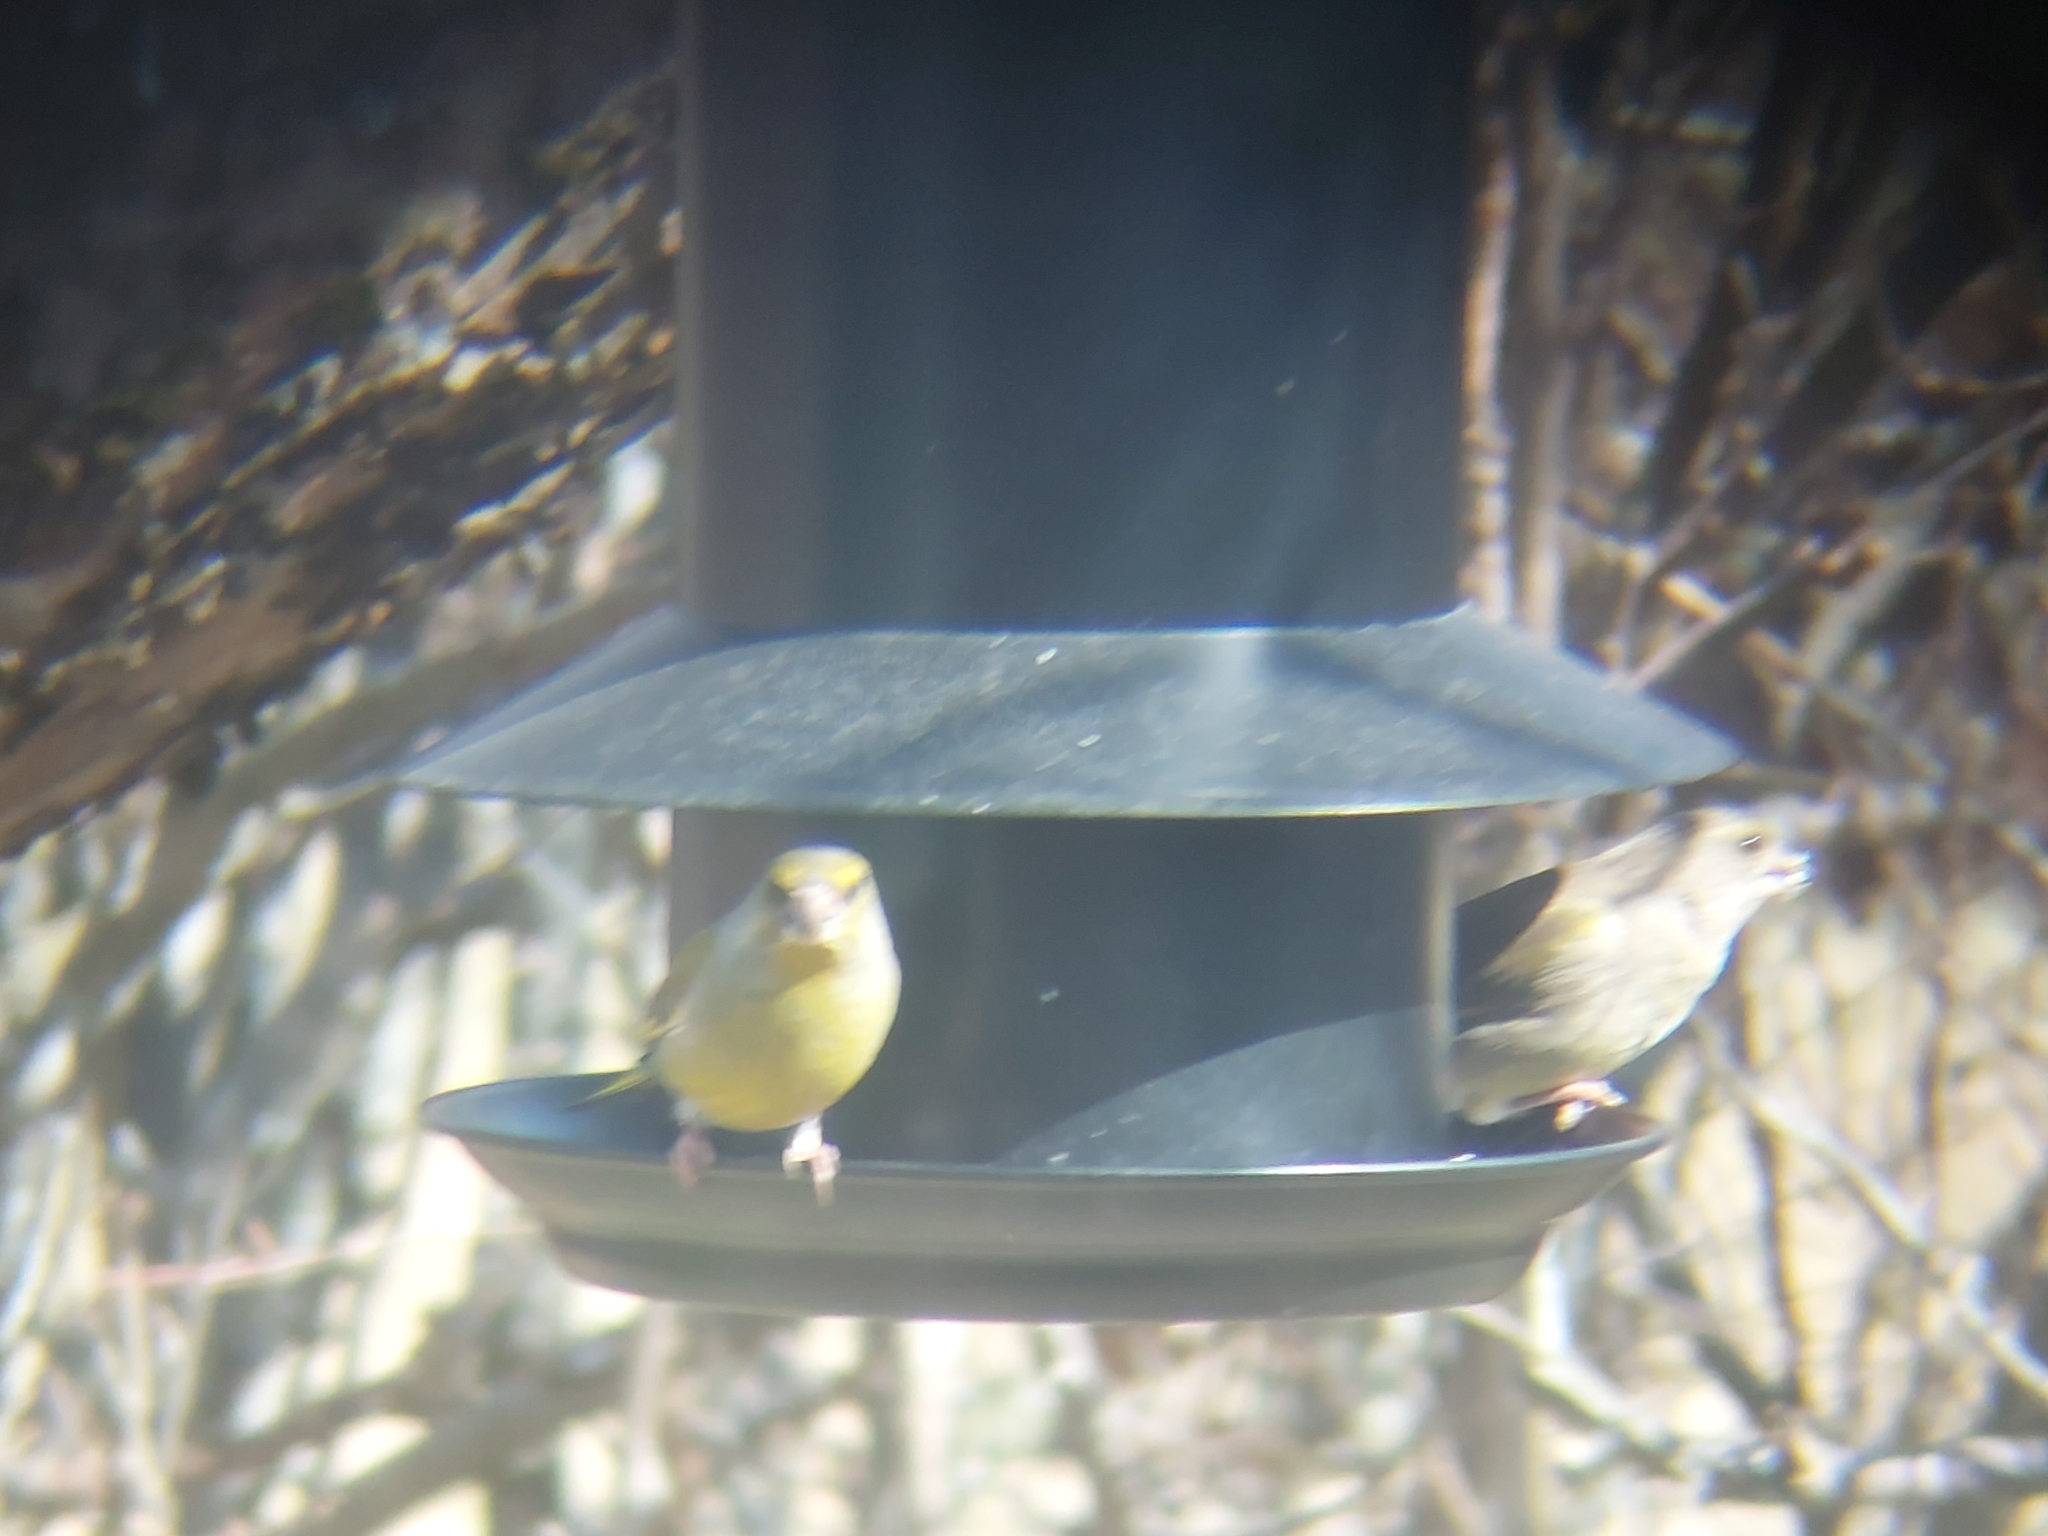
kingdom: Plantae
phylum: Tracheophyta
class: Liliopsida
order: Poales
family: Poaceae
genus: Chloris
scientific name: Chloris chloris
